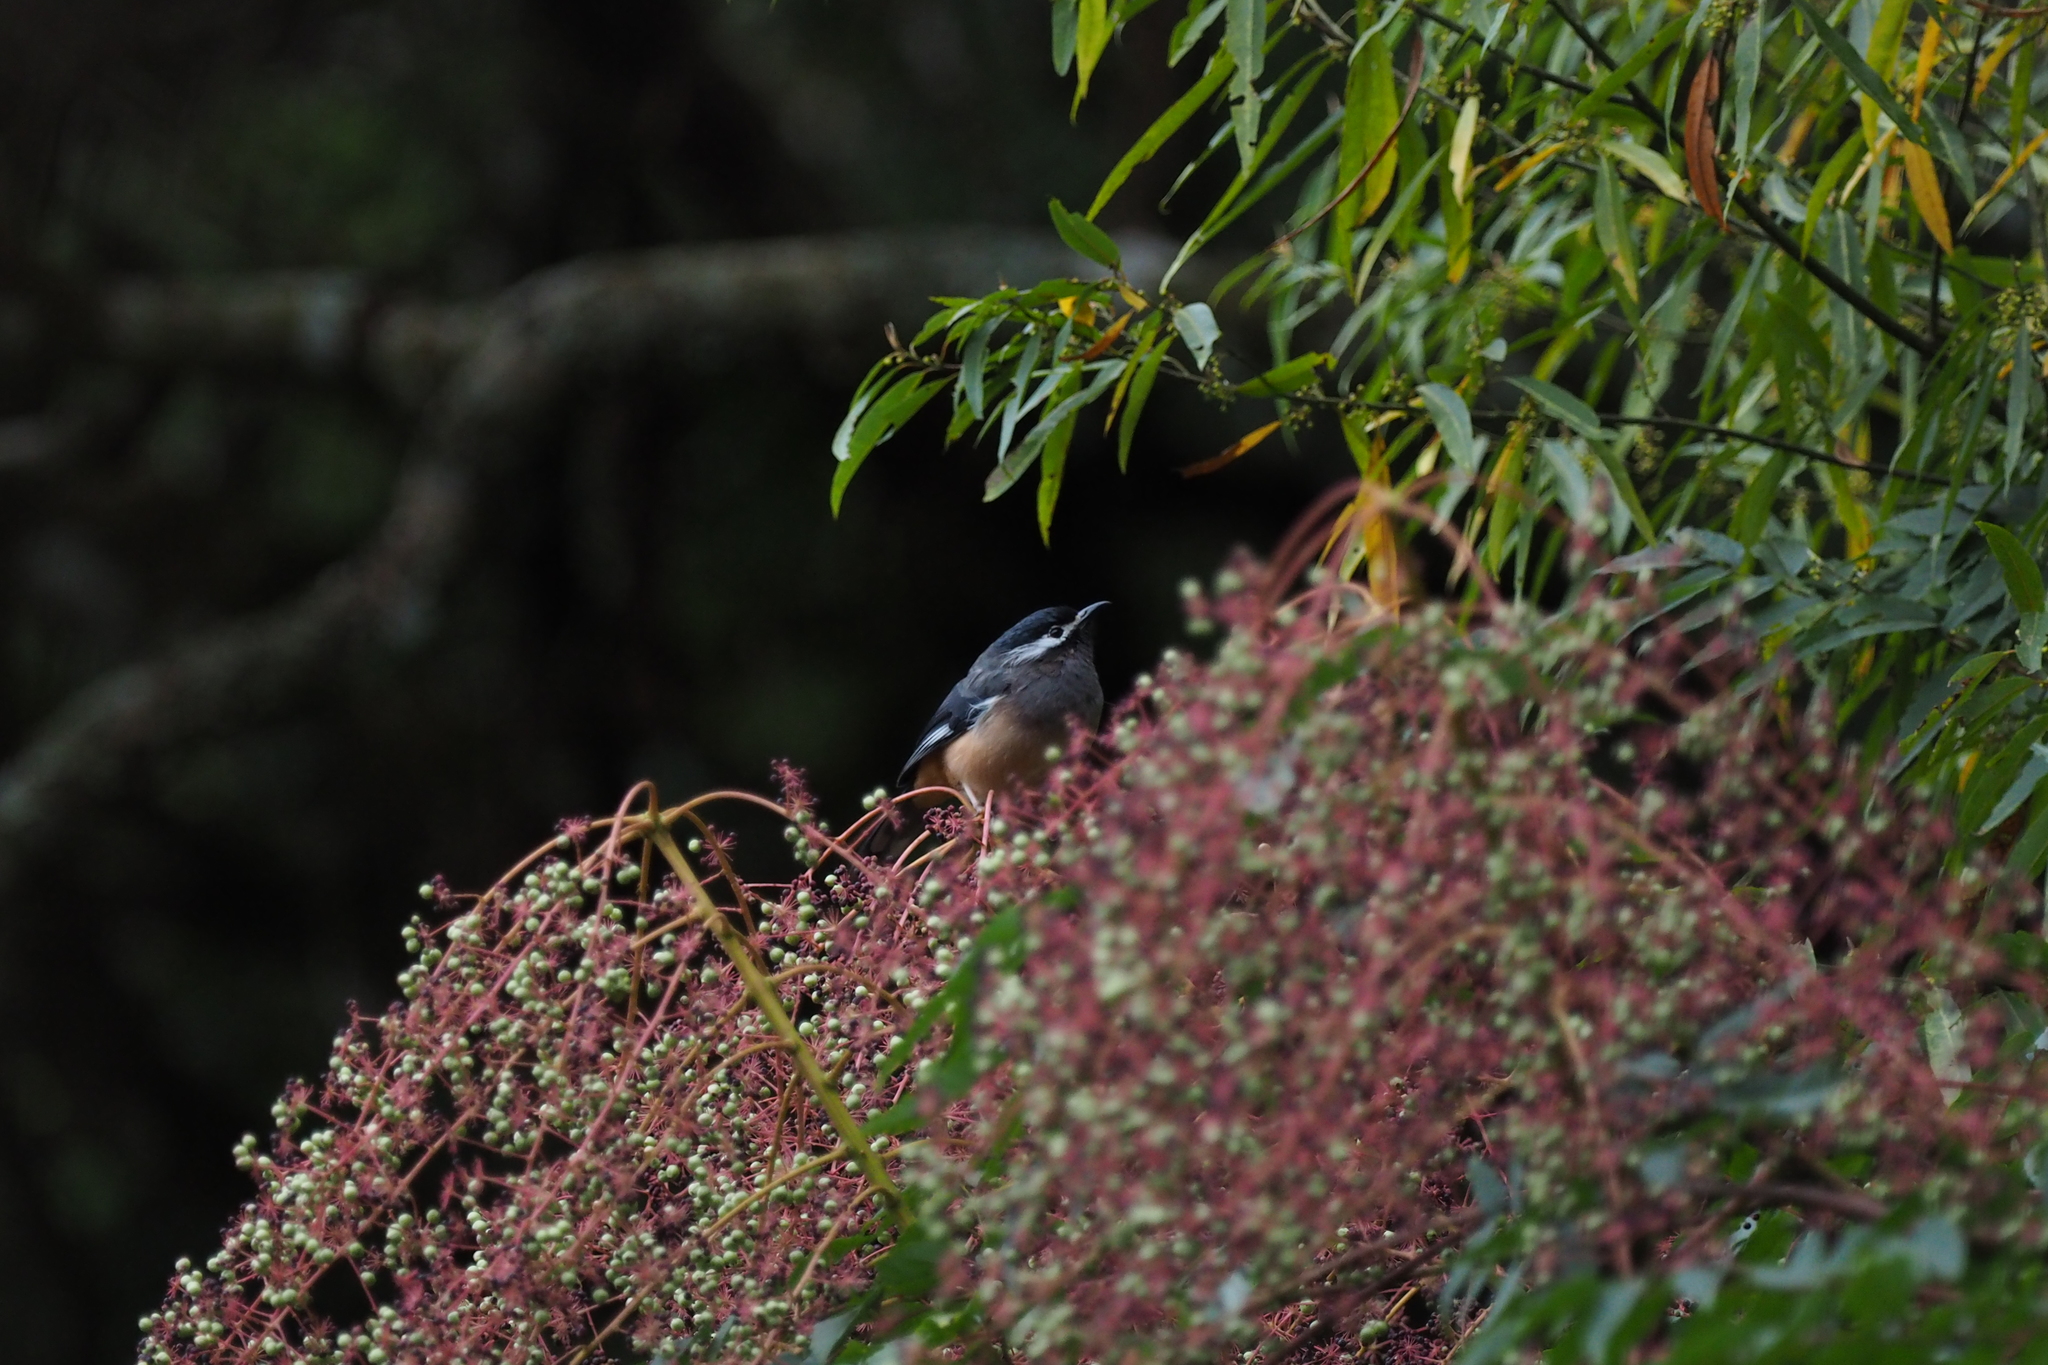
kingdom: Plantae
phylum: Tracheophyta
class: Magnoliopsida
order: Apiales
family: Araliaceae
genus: Aralia
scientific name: Aralia bipinnata
